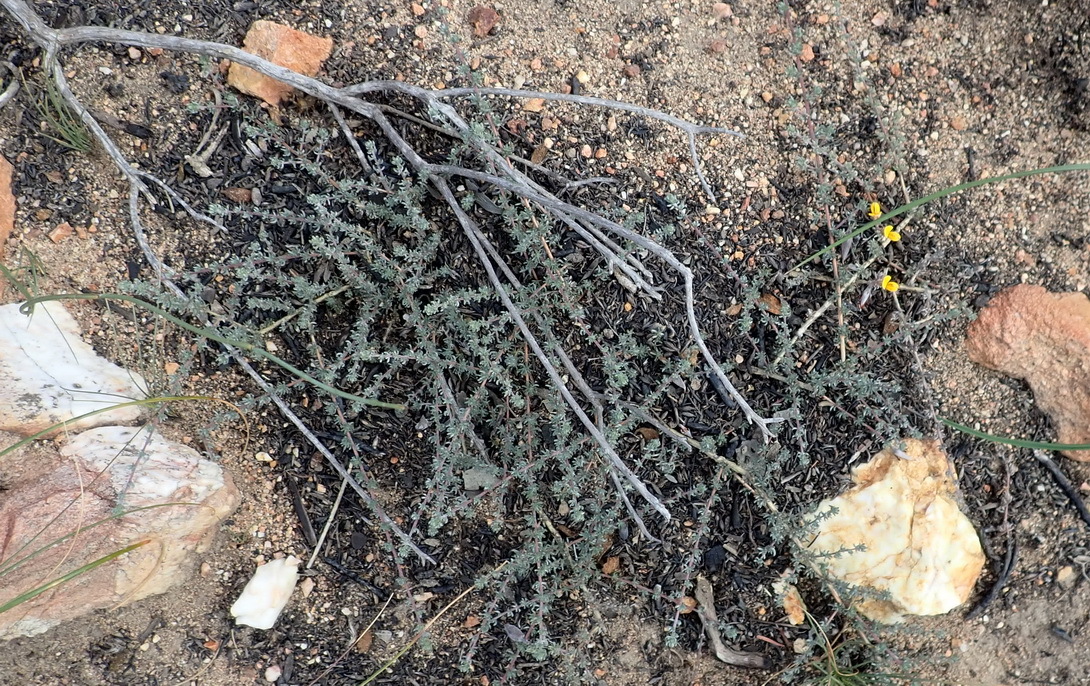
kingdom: Plantae
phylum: Tracheophyta
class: Magnoliopsida
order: Fabales
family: Fabaceae
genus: Aspalathus
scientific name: Aspalathus rubens
